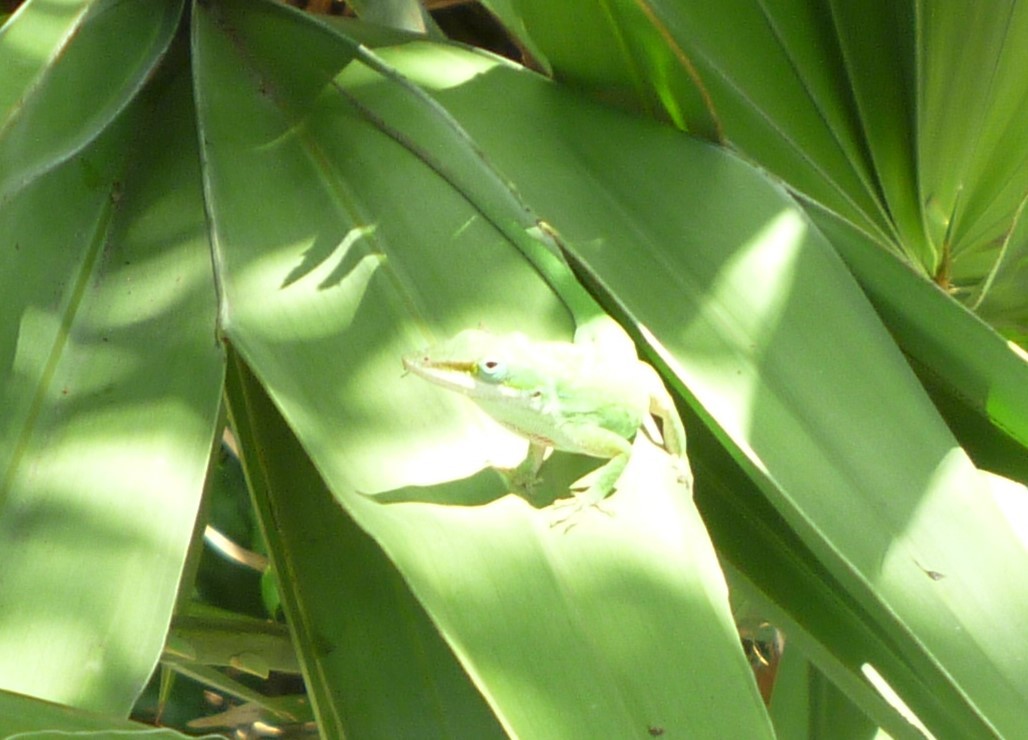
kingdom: Animalia
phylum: Chordata
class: Squamata
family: Dactyloidae
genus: Anolis
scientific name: Anolis carolinensis
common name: Green anole
